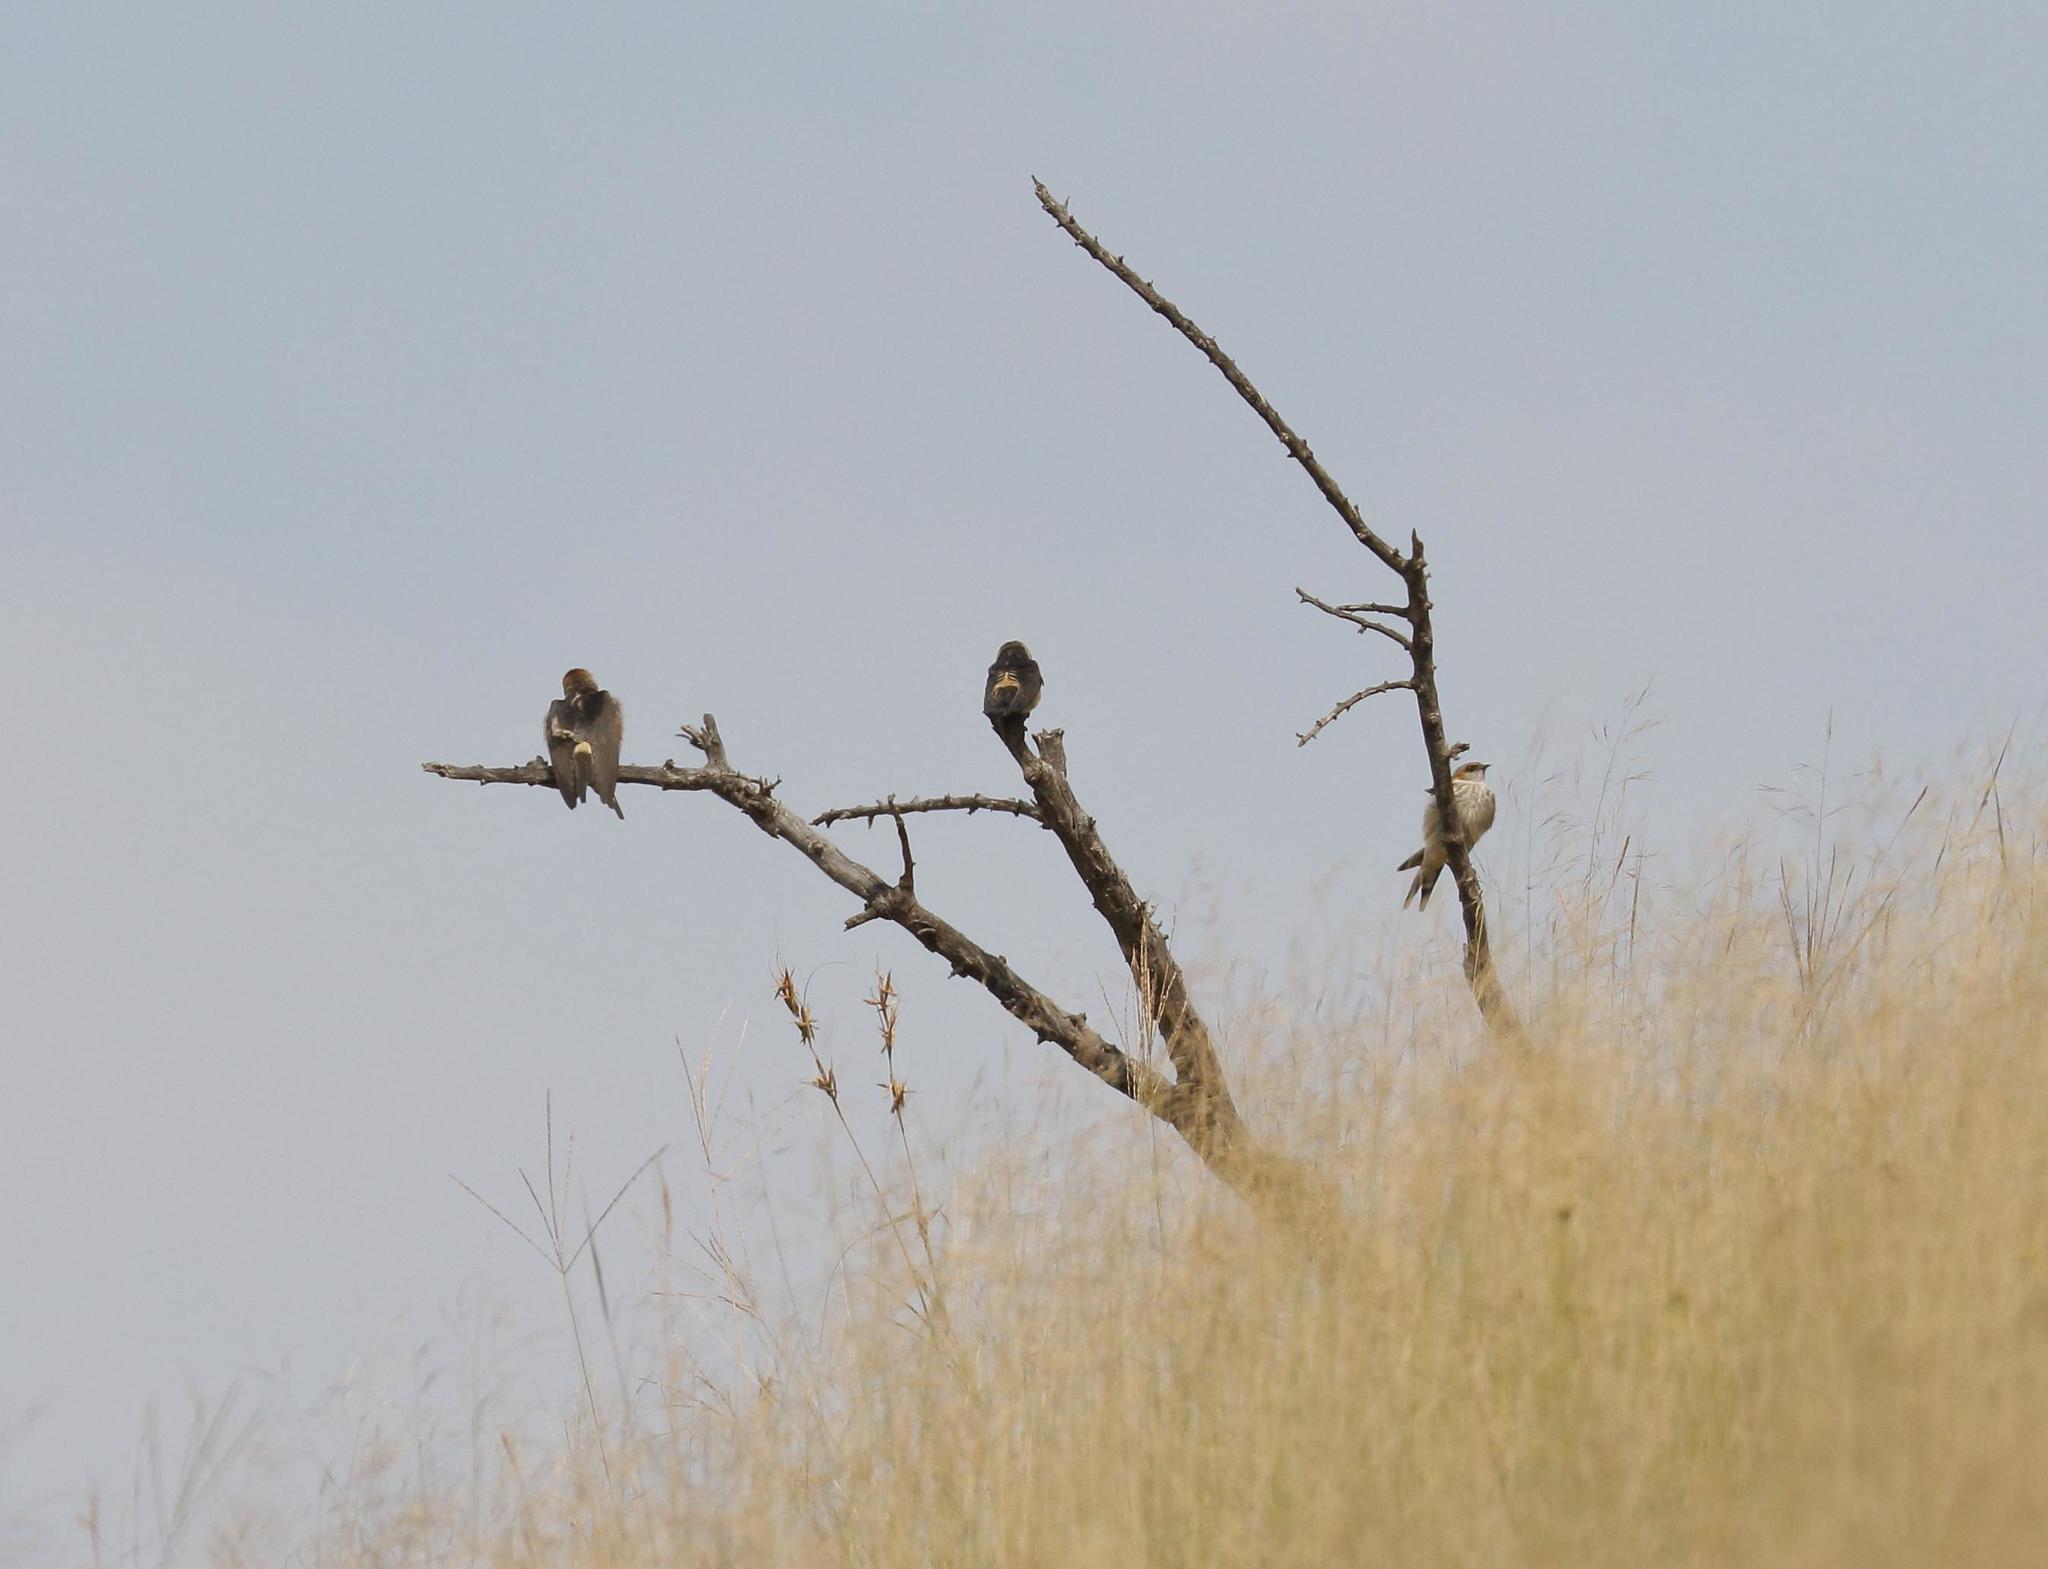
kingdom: Animalia
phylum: Chordata
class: Aves
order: Passeriformes
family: Hirundinidae
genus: Cecropis
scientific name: Cecropis cucullata
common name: Greater striped-swallow
